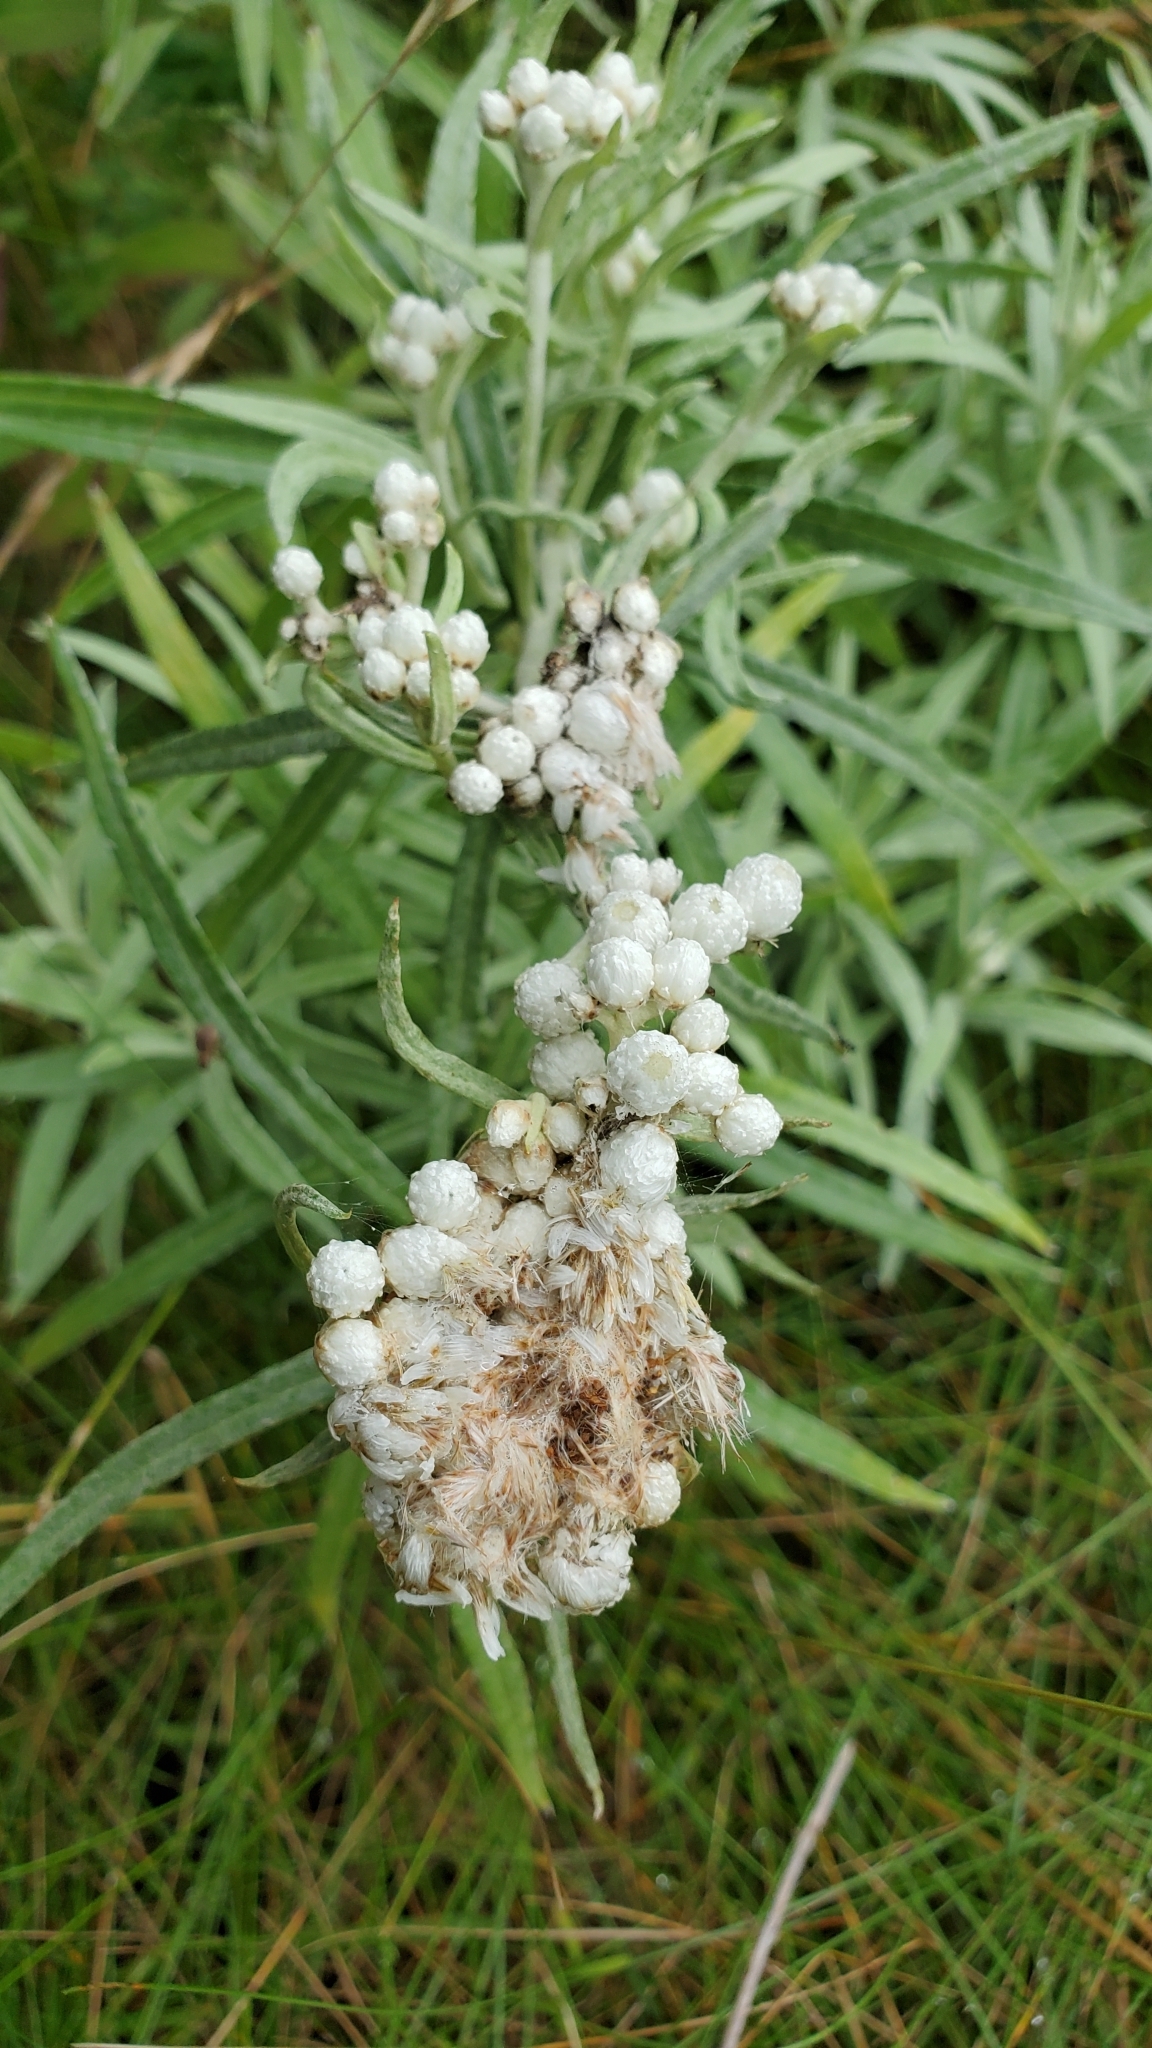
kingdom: Plantae
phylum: Tracheophyta
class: Magnoliopsida
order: Asterales
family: Asteraceae
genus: Anaphalis
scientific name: Anaphalis margaritacea
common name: Pearly everlasting
